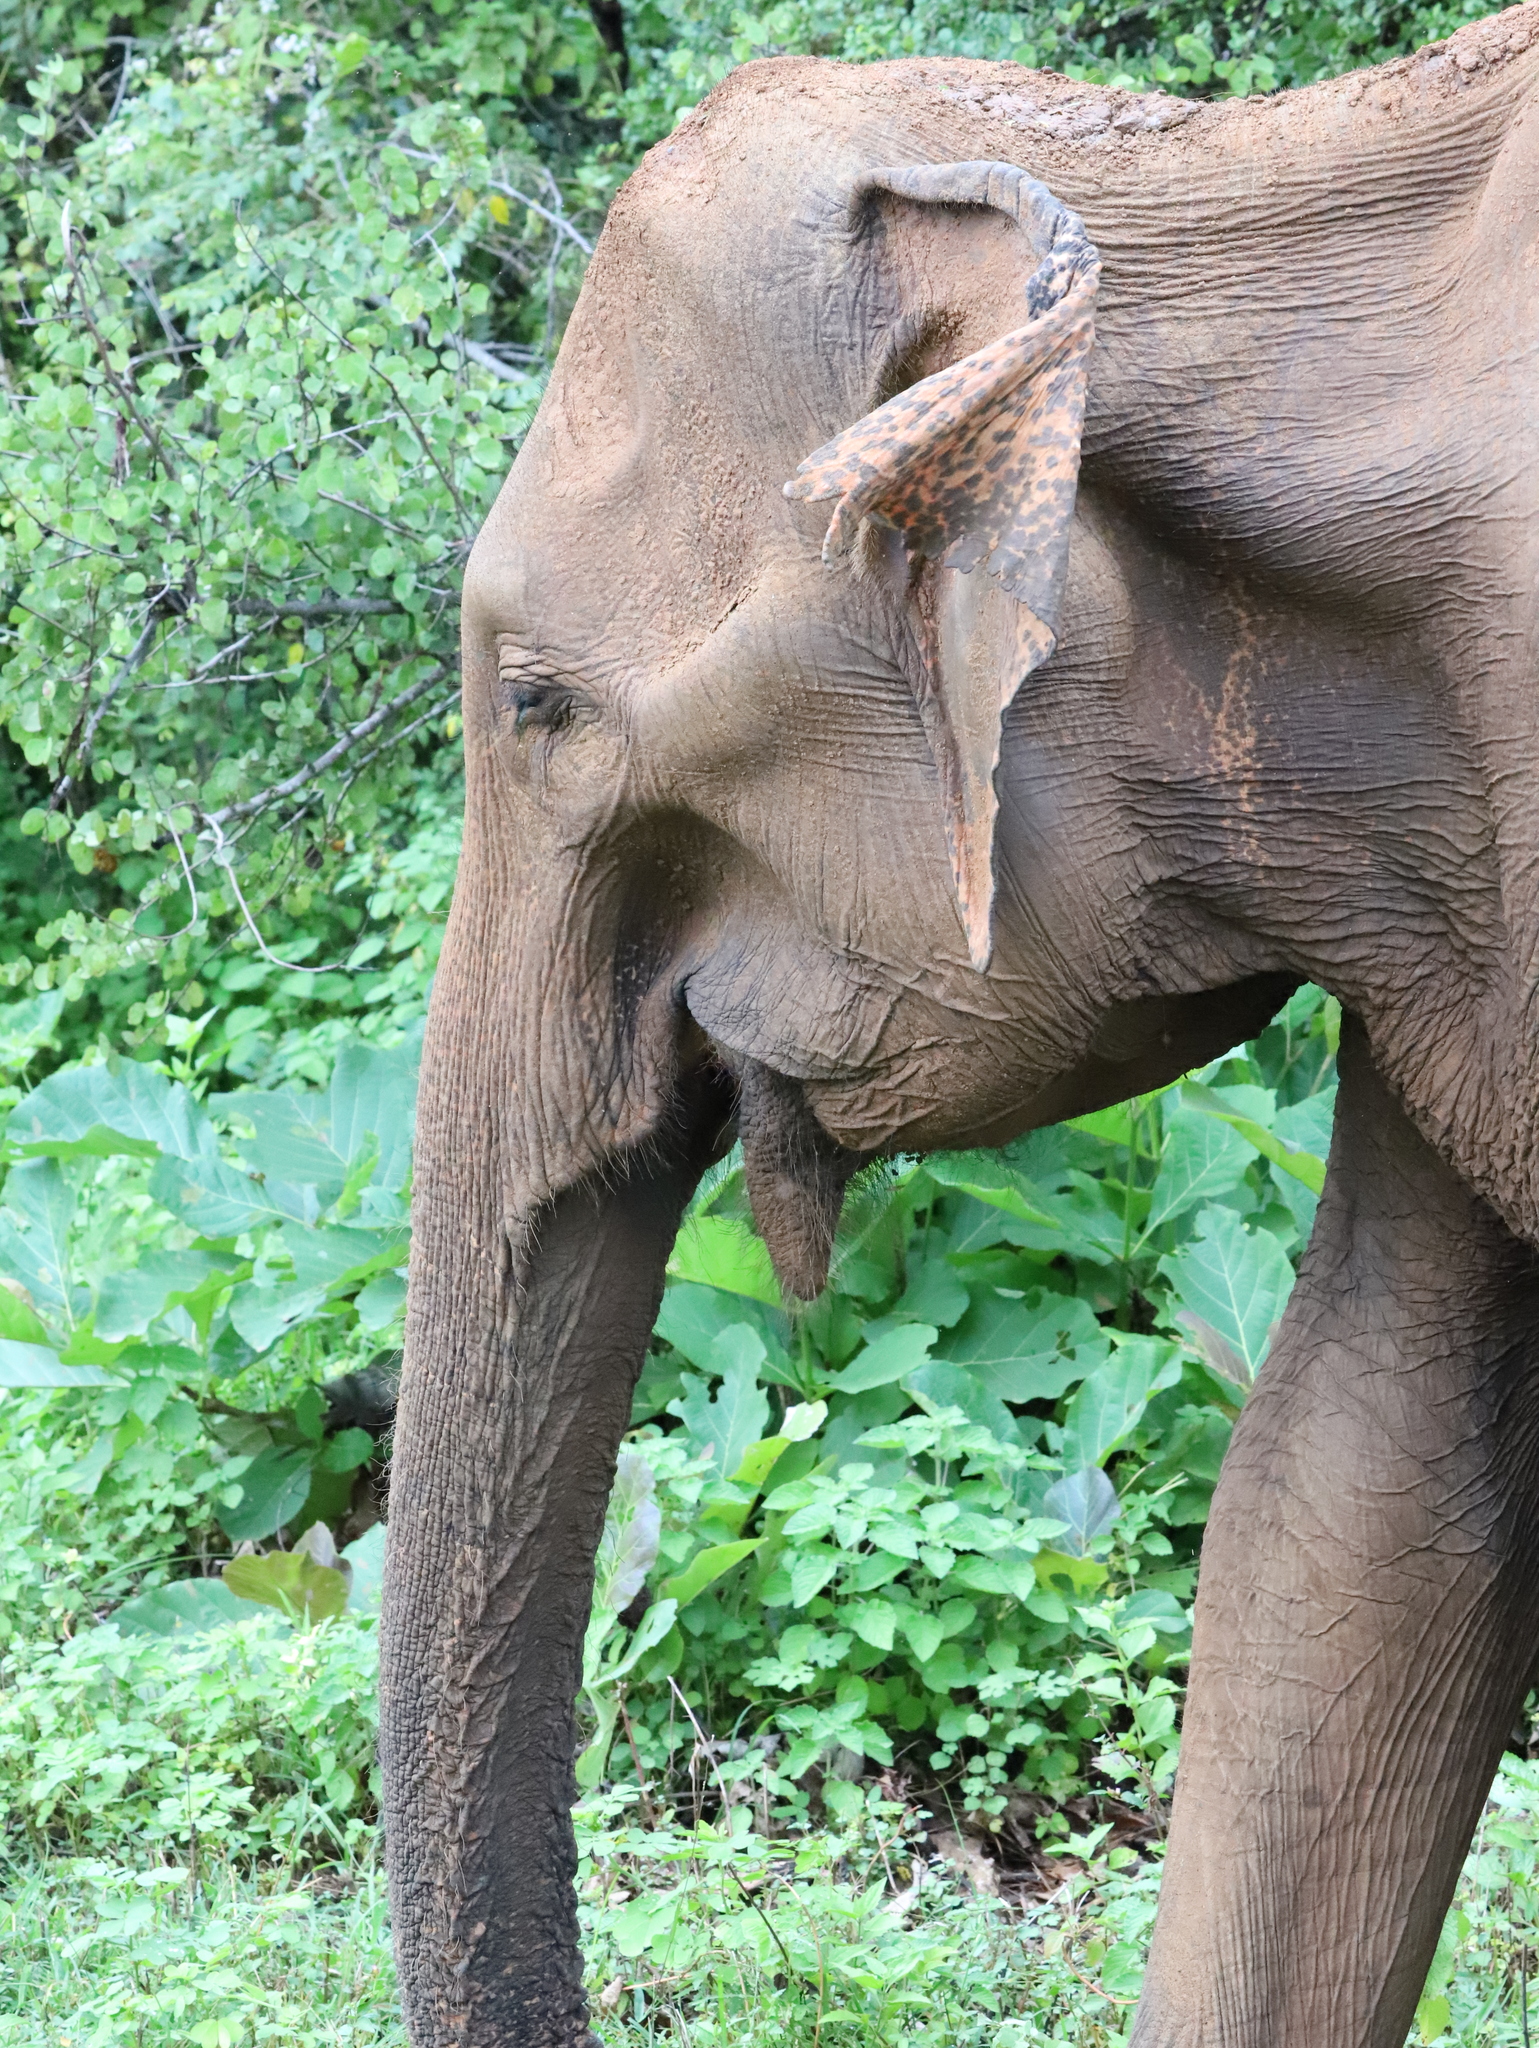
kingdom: Animalia
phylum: Chordata
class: Mammalia
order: Proboscidea
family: Elephantidae
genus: Elephas
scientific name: Elephas maximus
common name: Asian elephant
